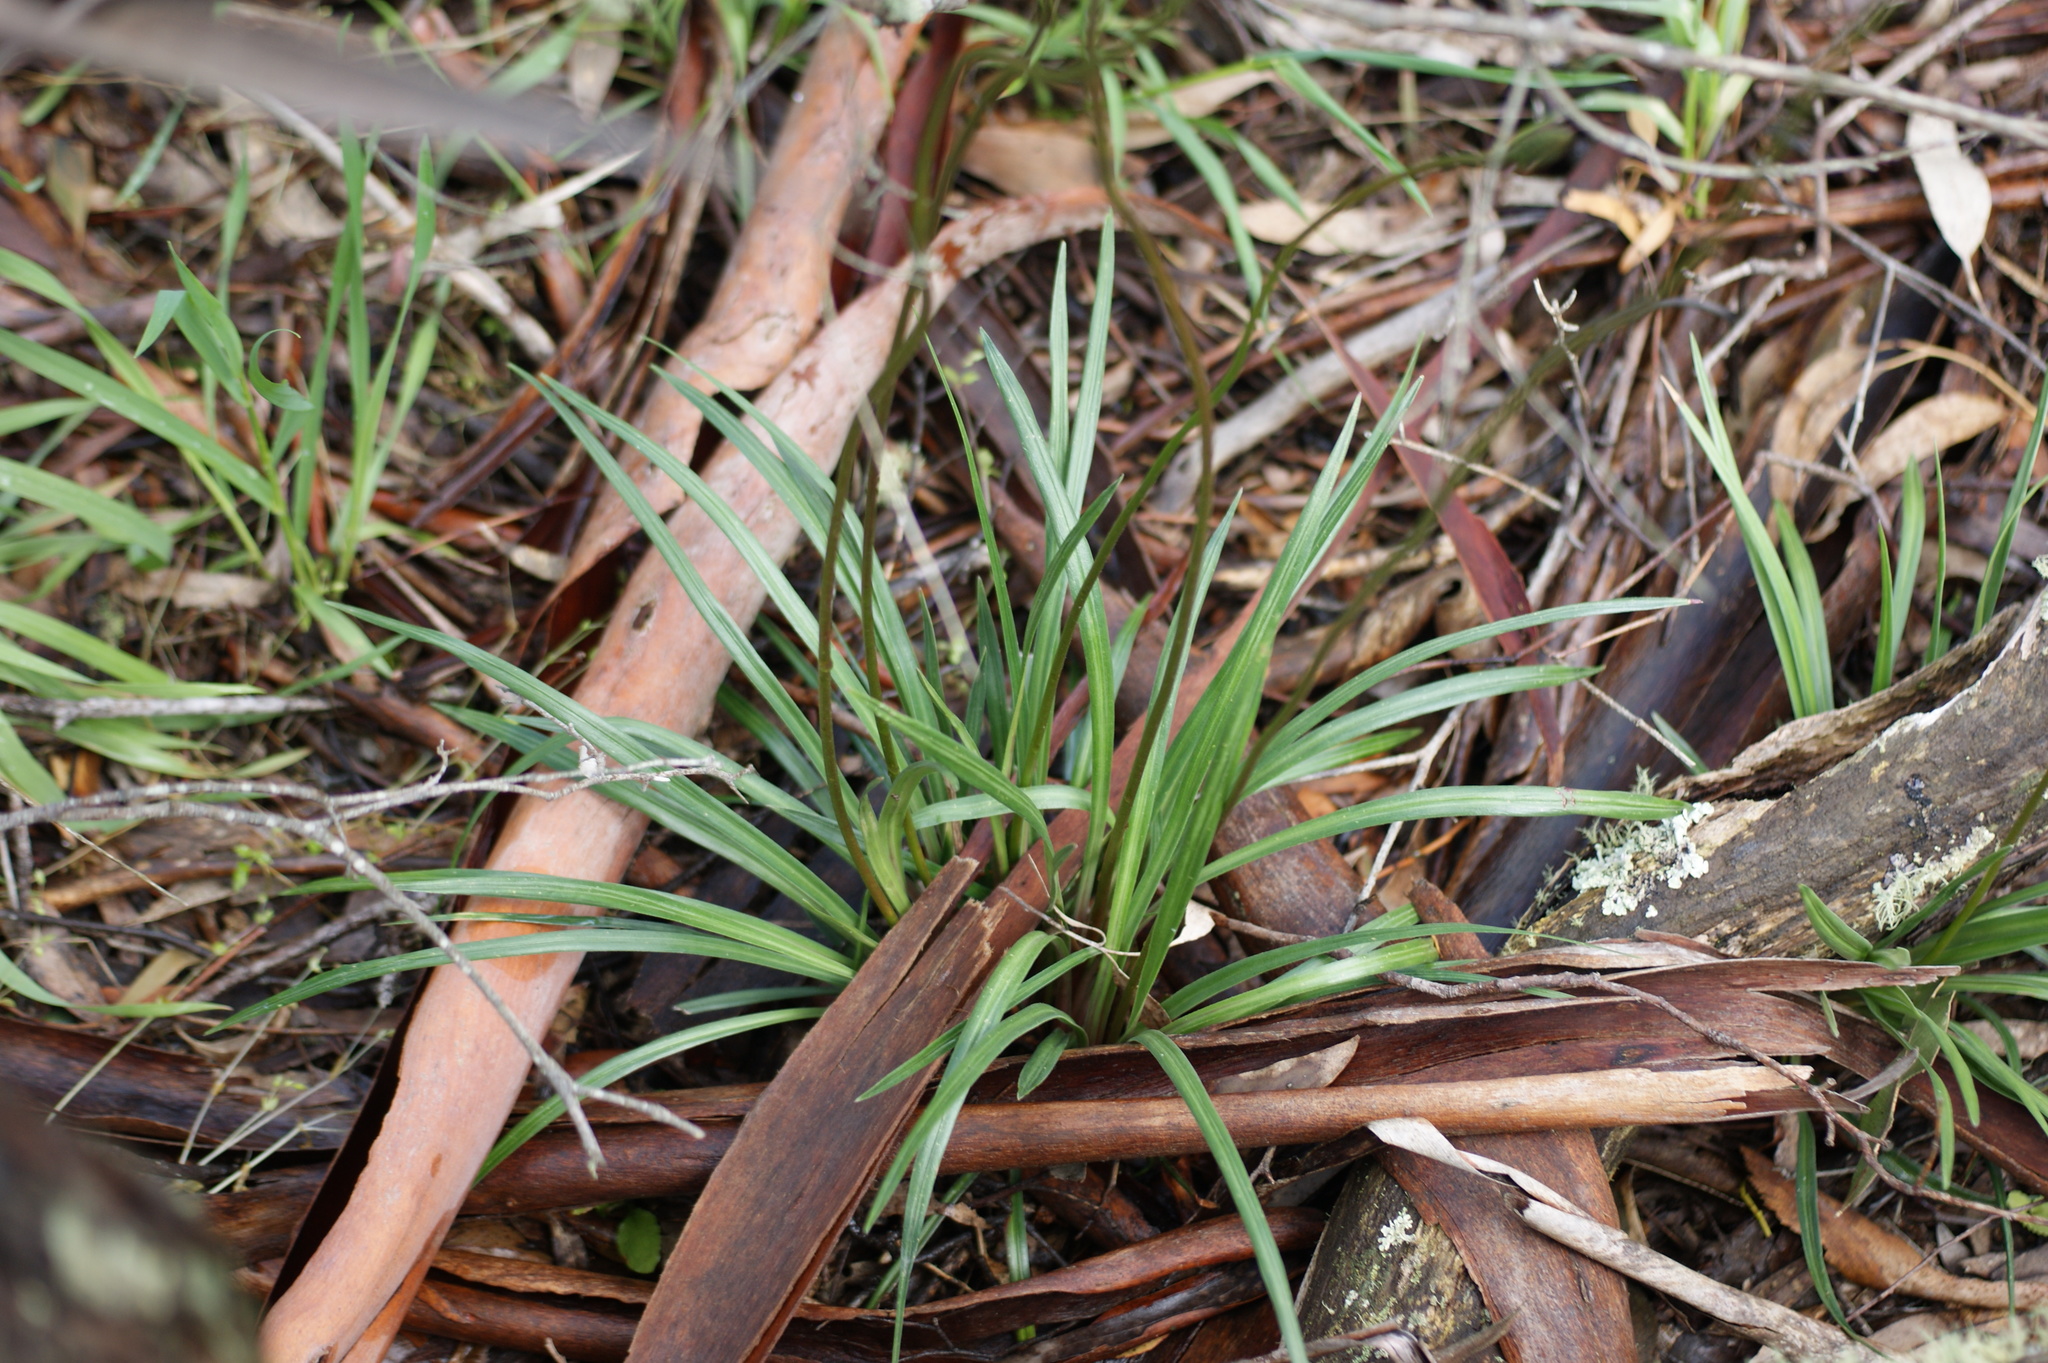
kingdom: Plantae
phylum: Tracheophyta
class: Magnoliopsida
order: Asterales
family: Stylidiaceae
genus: Stylidium
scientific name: Stylidium graminifolium
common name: Grass triggerplant
